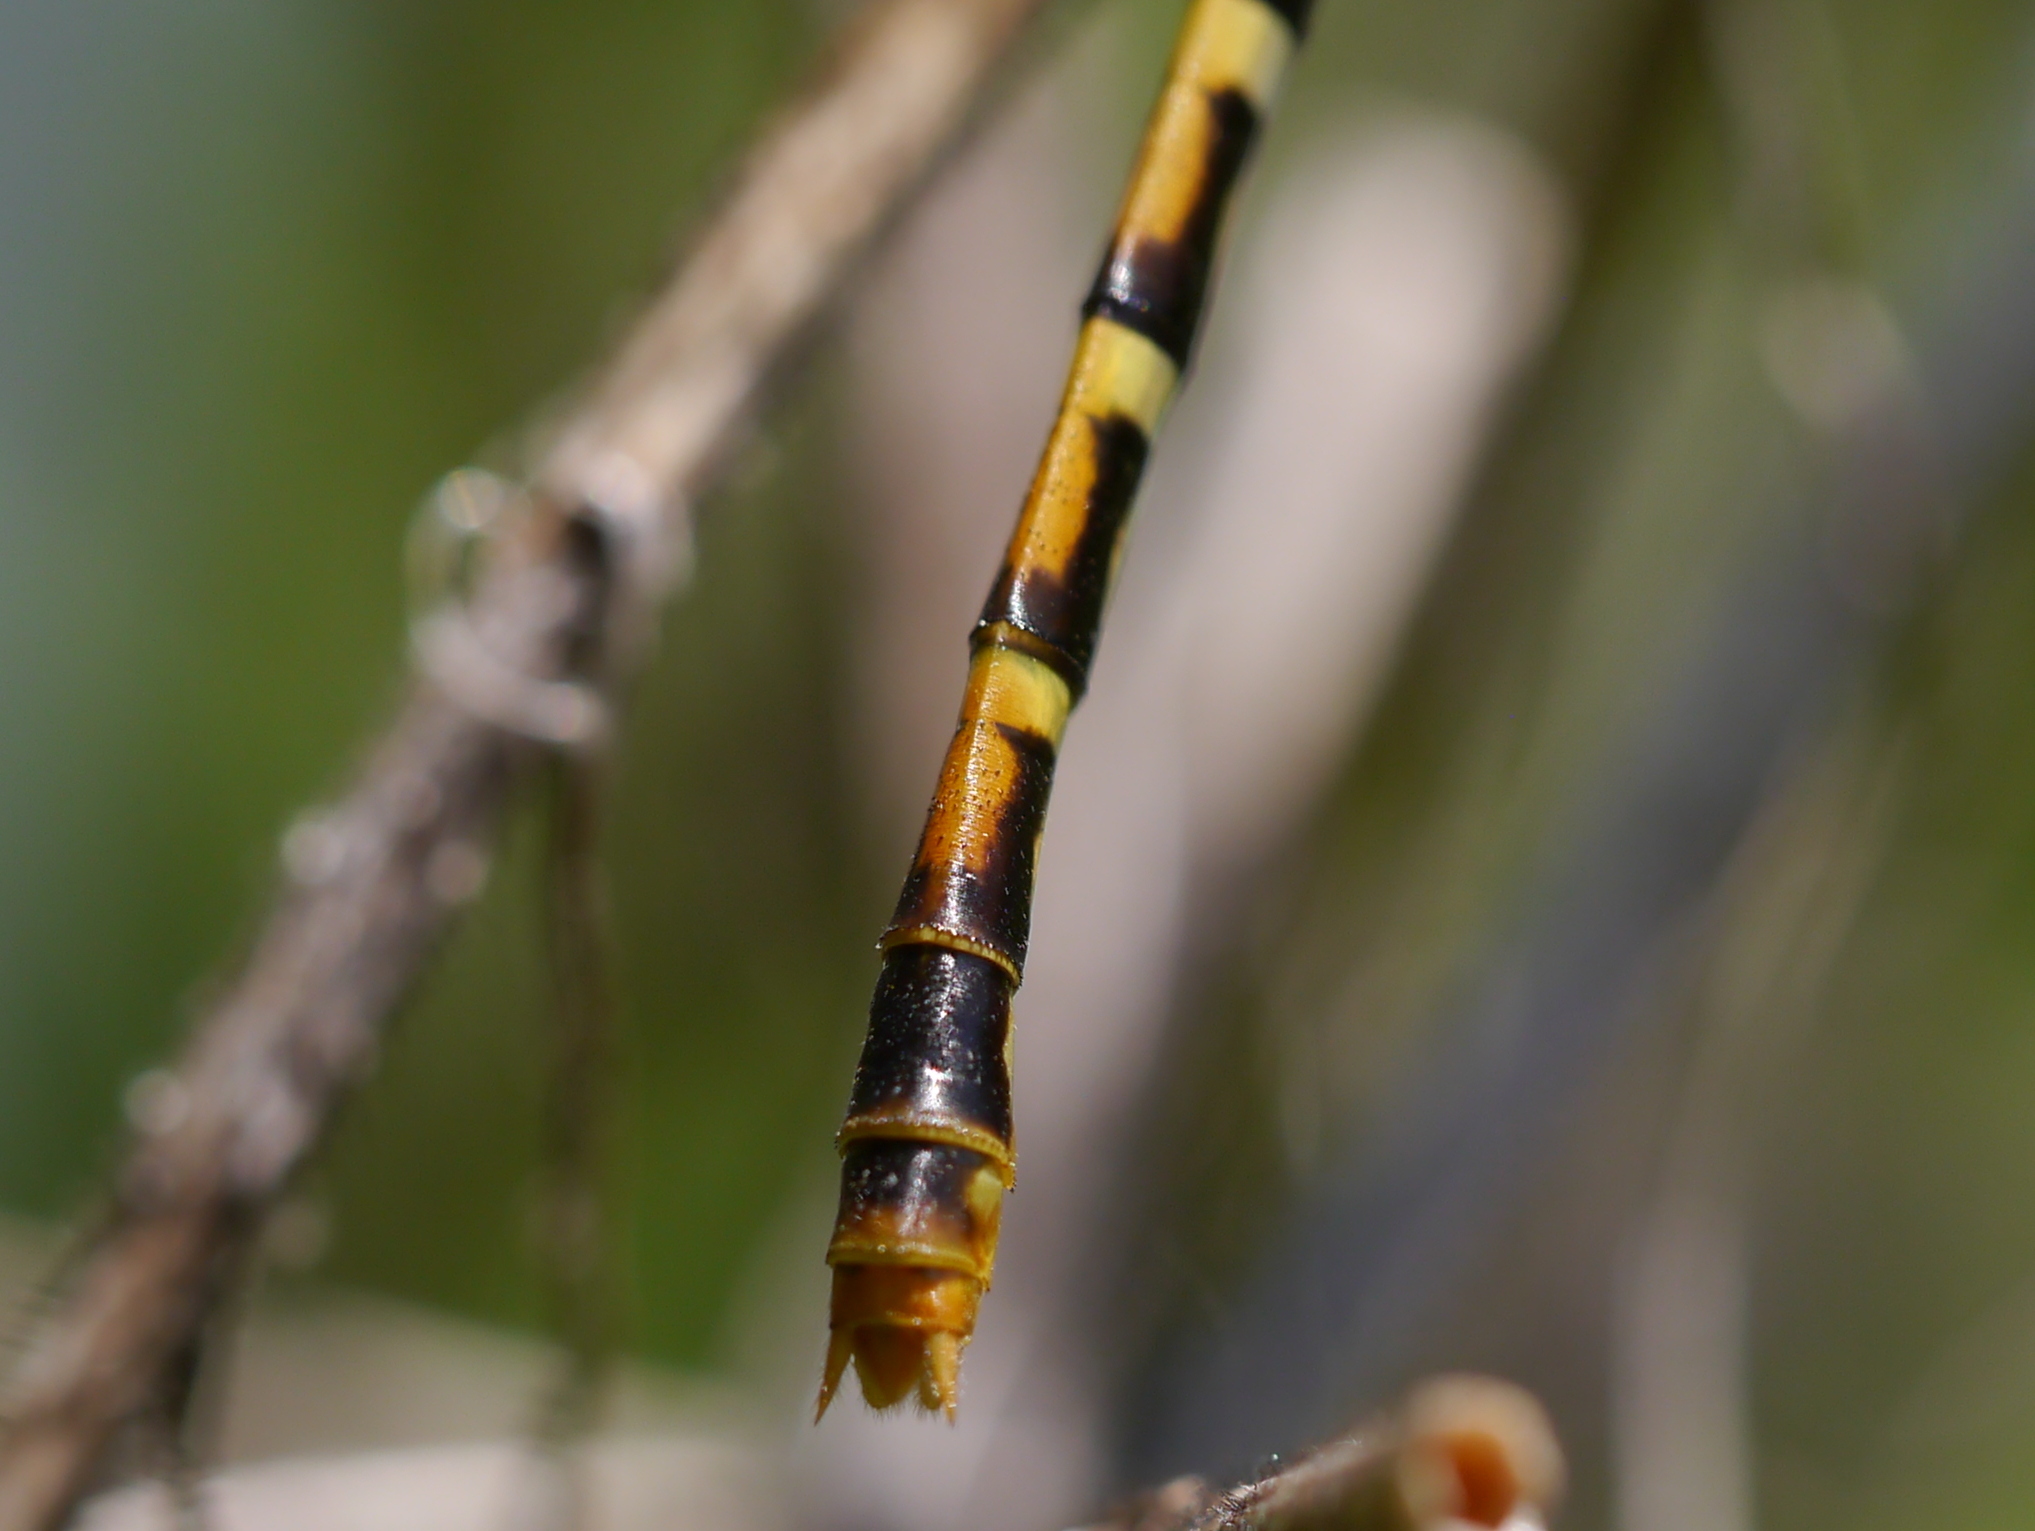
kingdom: Animalia
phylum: Arthropoda
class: Insecta
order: Odonata
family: Gomphidae
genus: Erpetogomphus
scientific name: Erpetogomphus designatus
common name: Eastern ringtail
